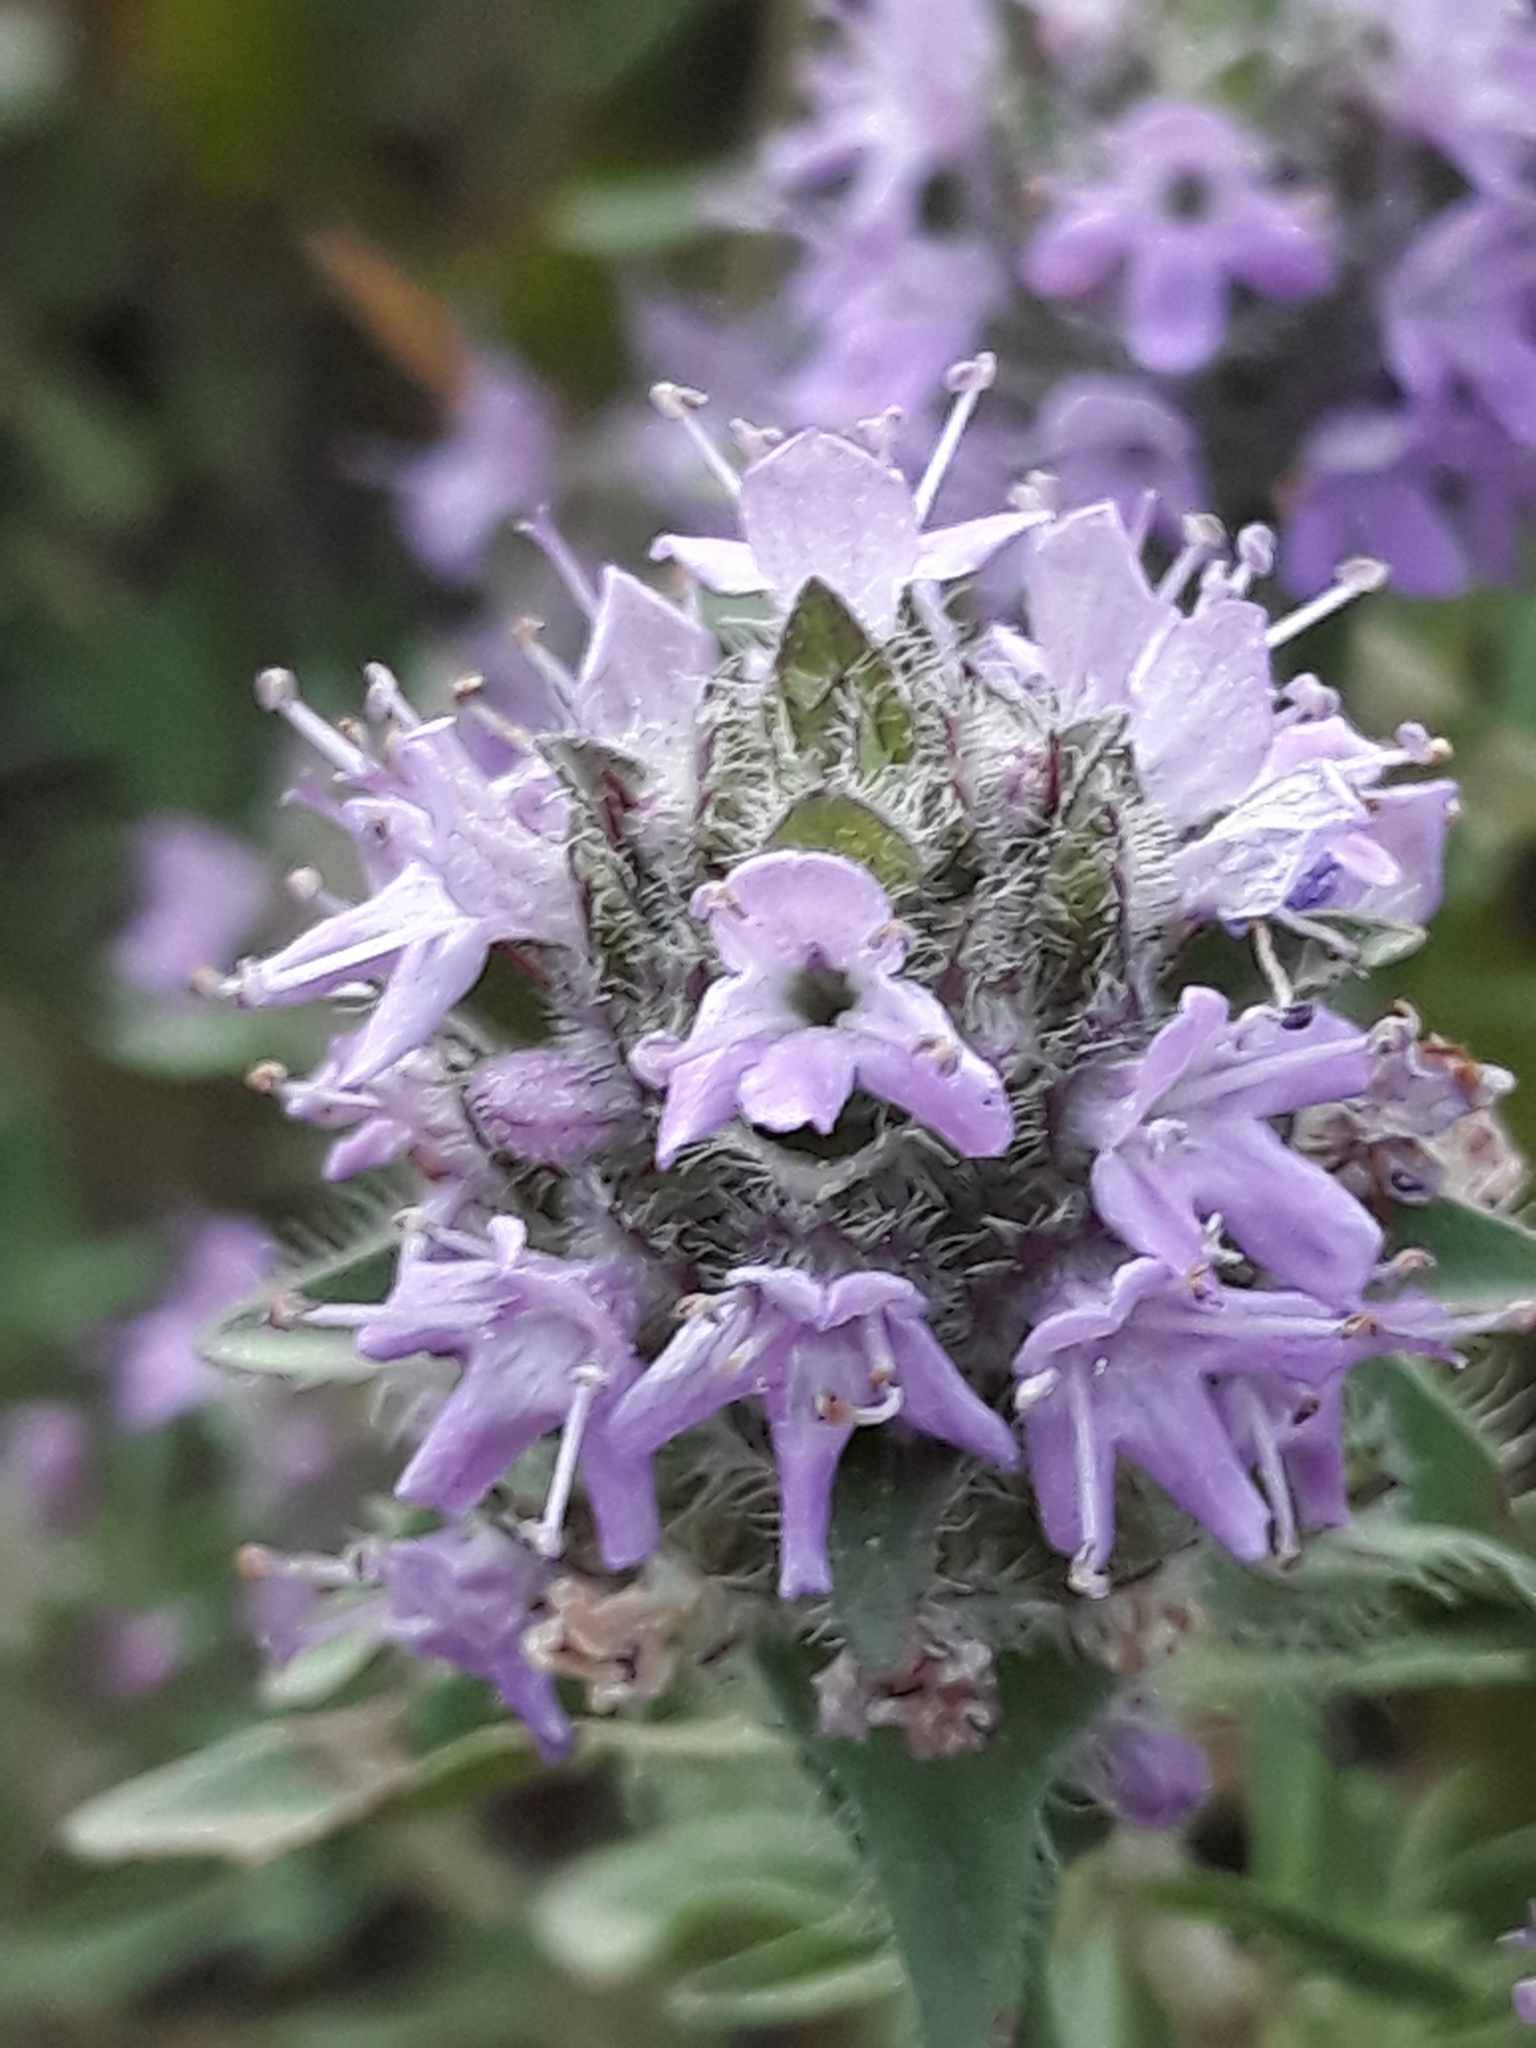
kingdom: Plantae
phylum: Tracheophyta
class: Magnoliopsida
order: Lamiales
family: Lamiaceae
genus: Thymus
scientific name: Thymus numidicus
